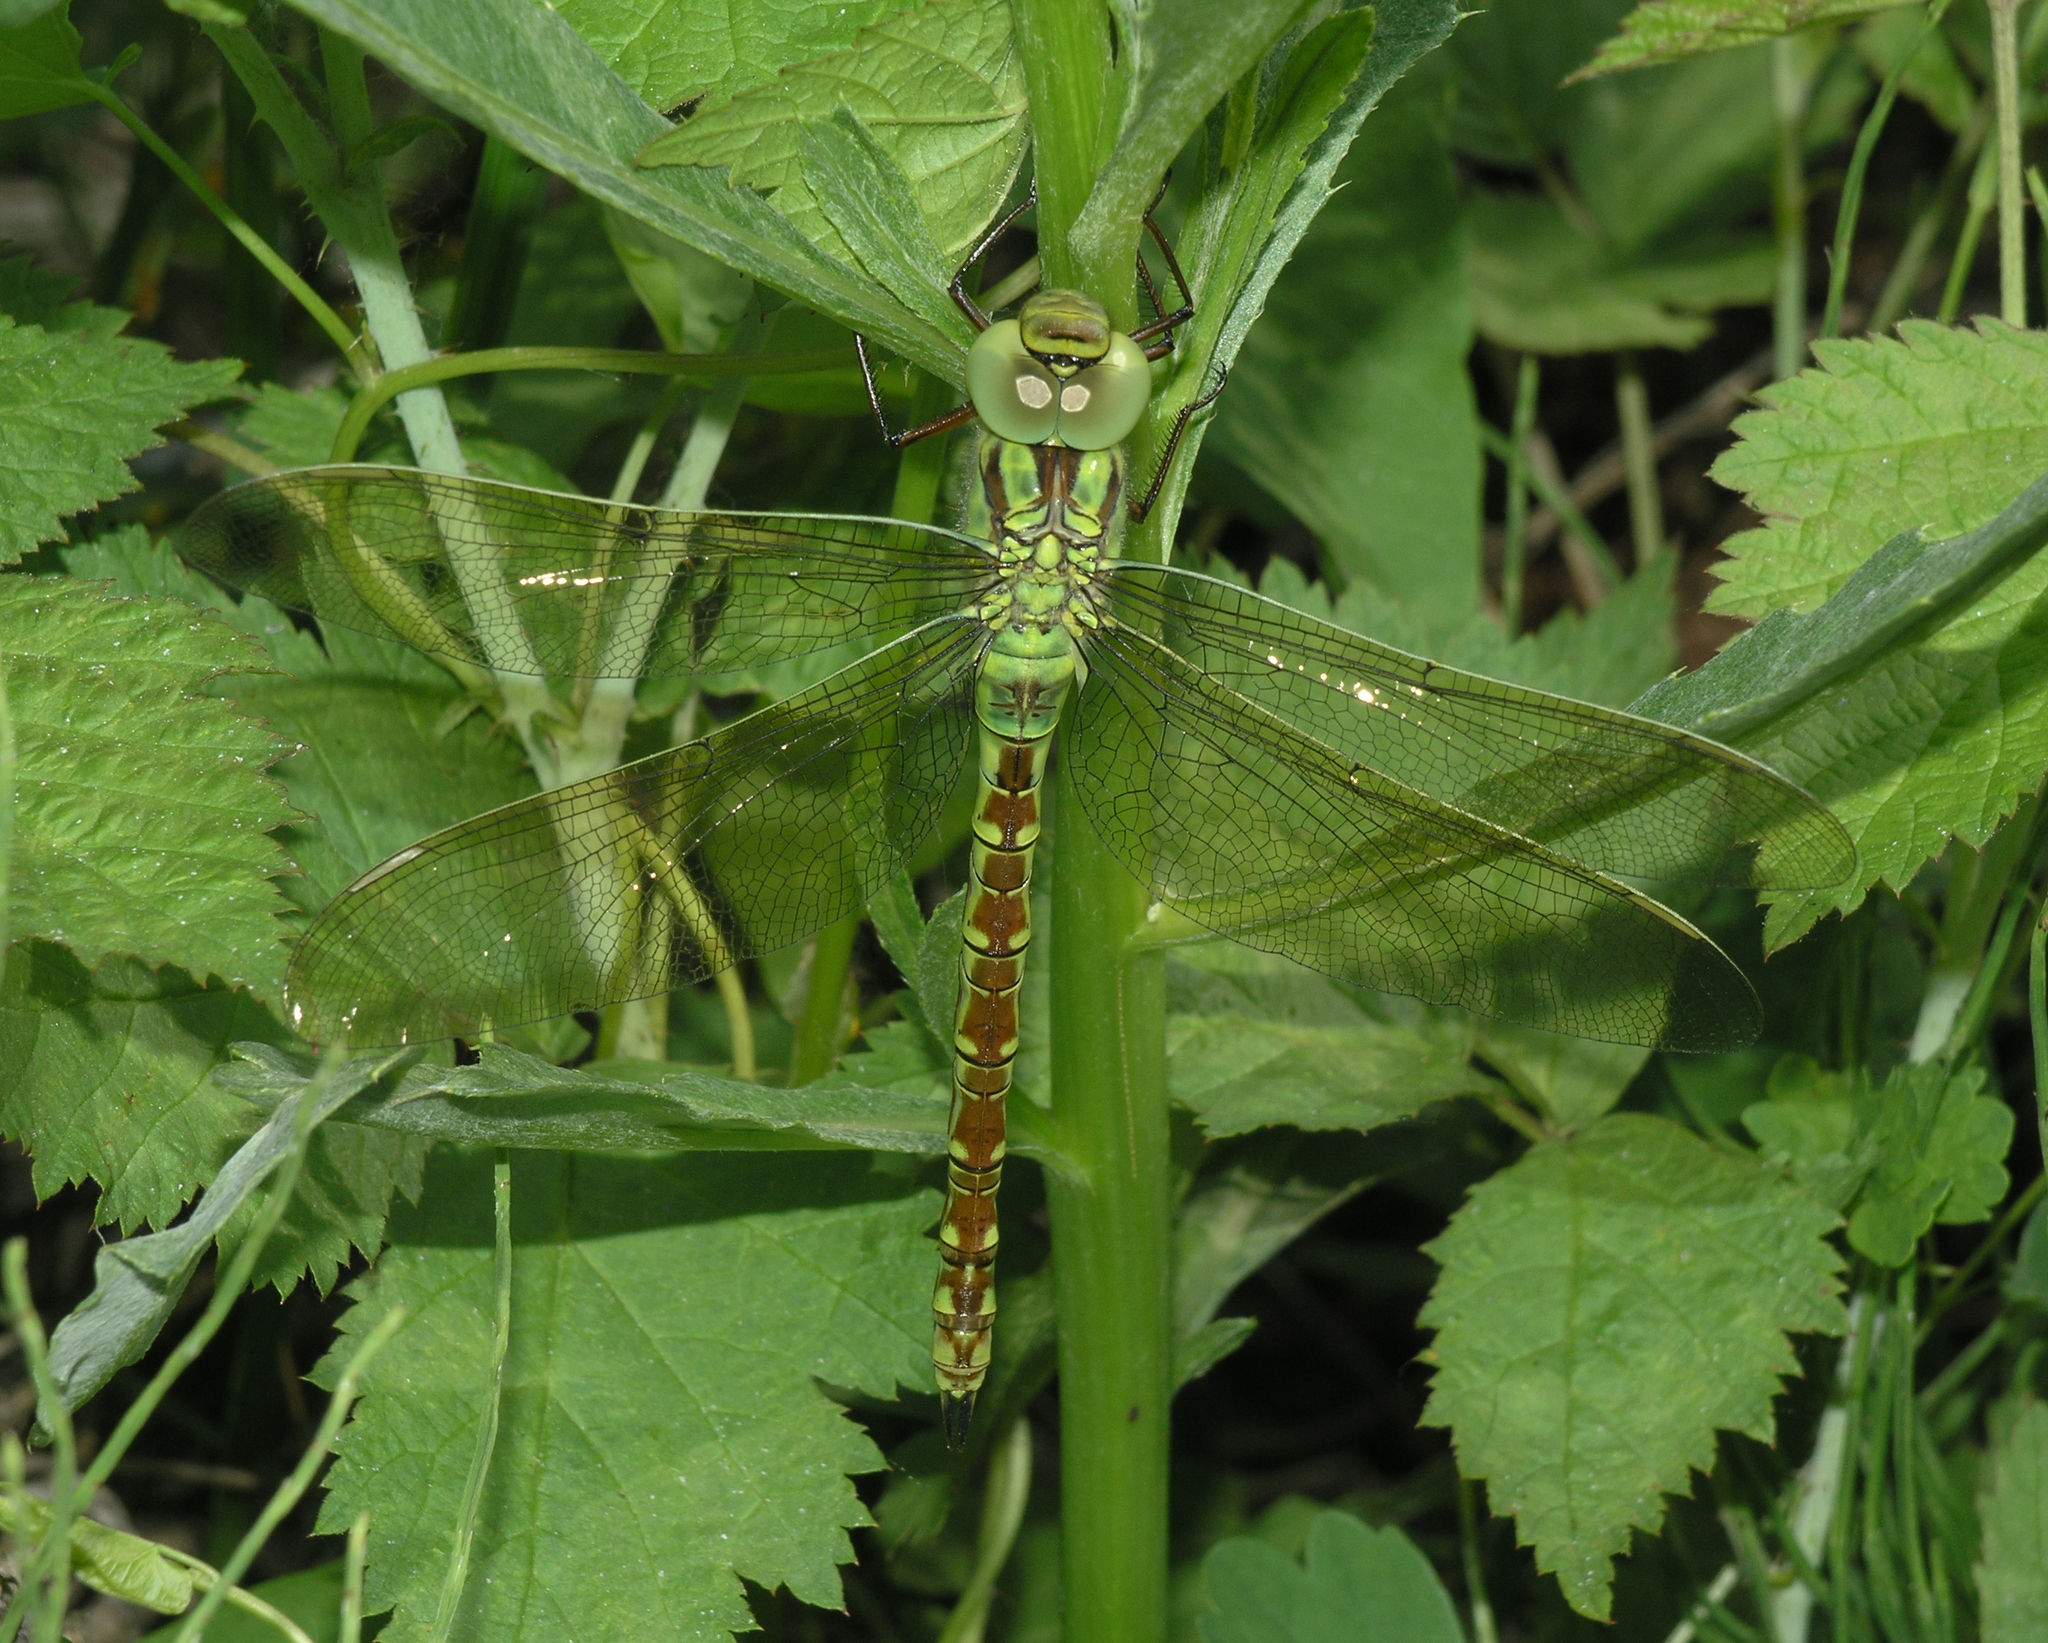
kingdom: Animalia
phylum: Arthropoda
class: Insecta
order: Odonata
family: Aeshnidae
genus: Aeshna
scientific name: Aeshna viridis
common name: Green hawker
